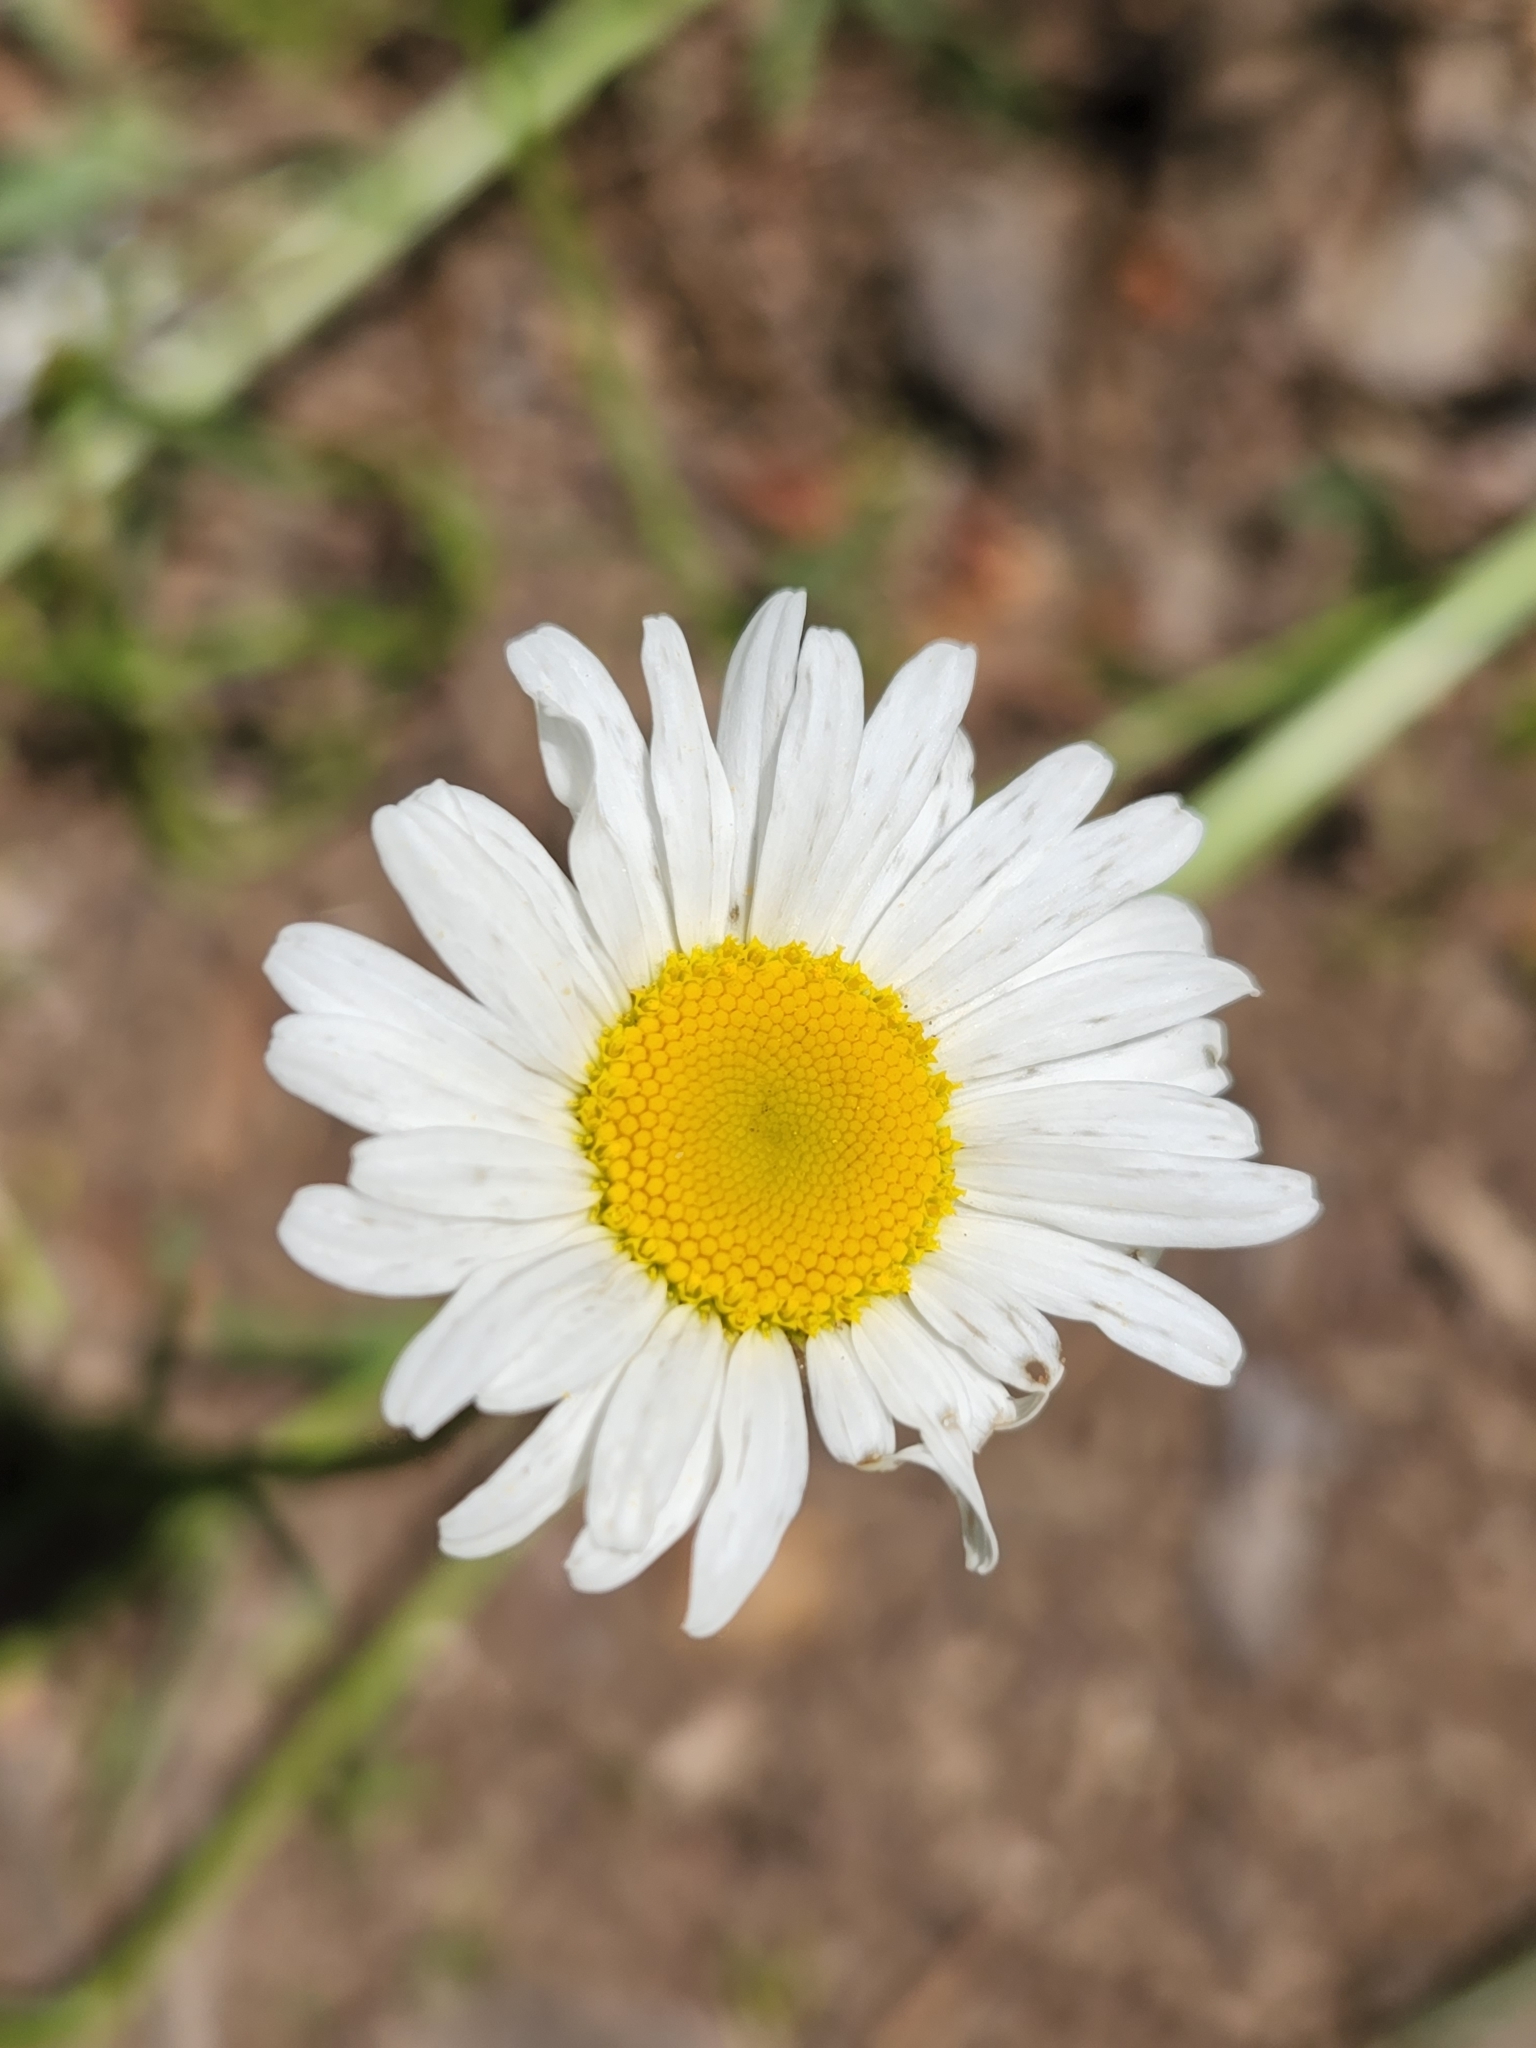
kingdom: Plantae
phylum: Tracheophyta
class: Magnoliopsida
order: Asterales
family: Asteraceae
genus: Leucanthemum
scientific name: Leucanthemum vulgare
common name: Oxeye daisy
